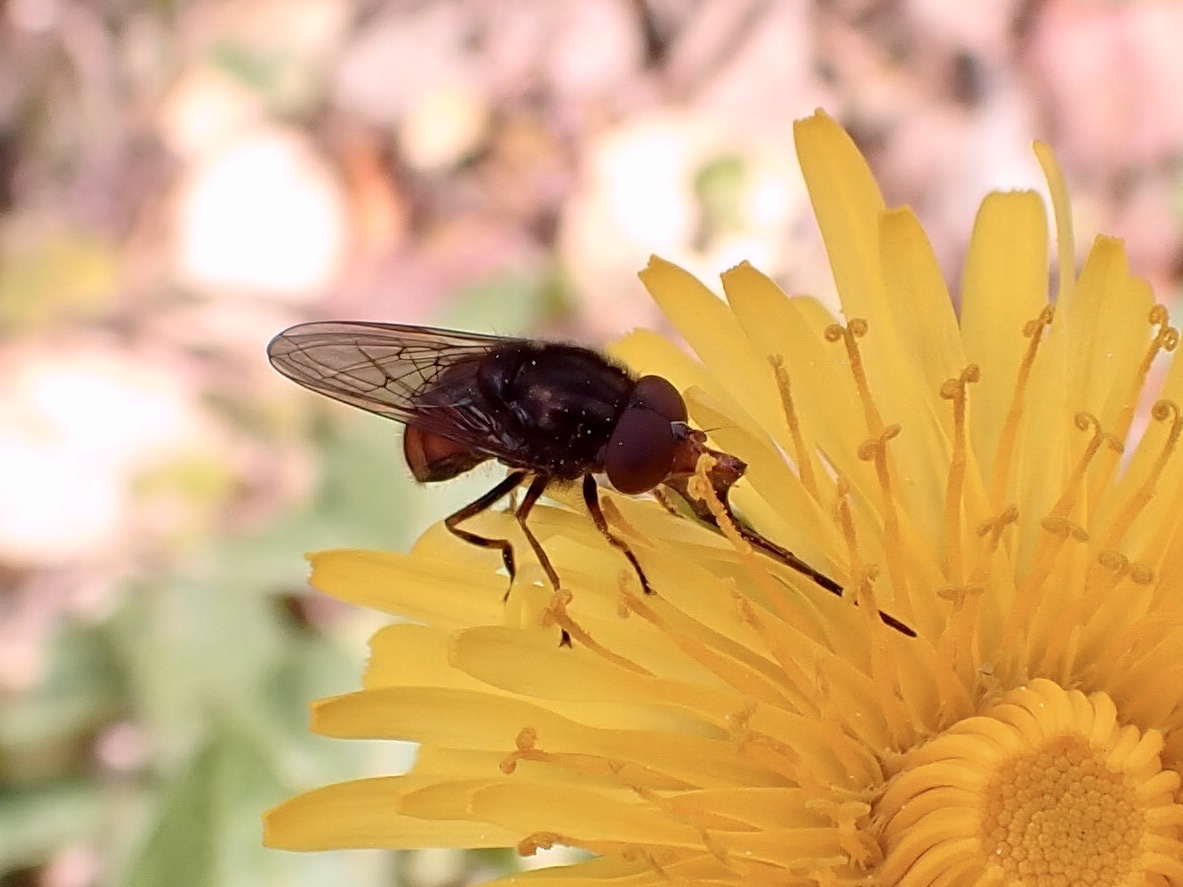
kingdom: Animalia
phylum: Arthropoda
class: Insecta
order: Diptera
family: Syrphidae
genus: Rhingia
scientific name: Rhingia campestris
